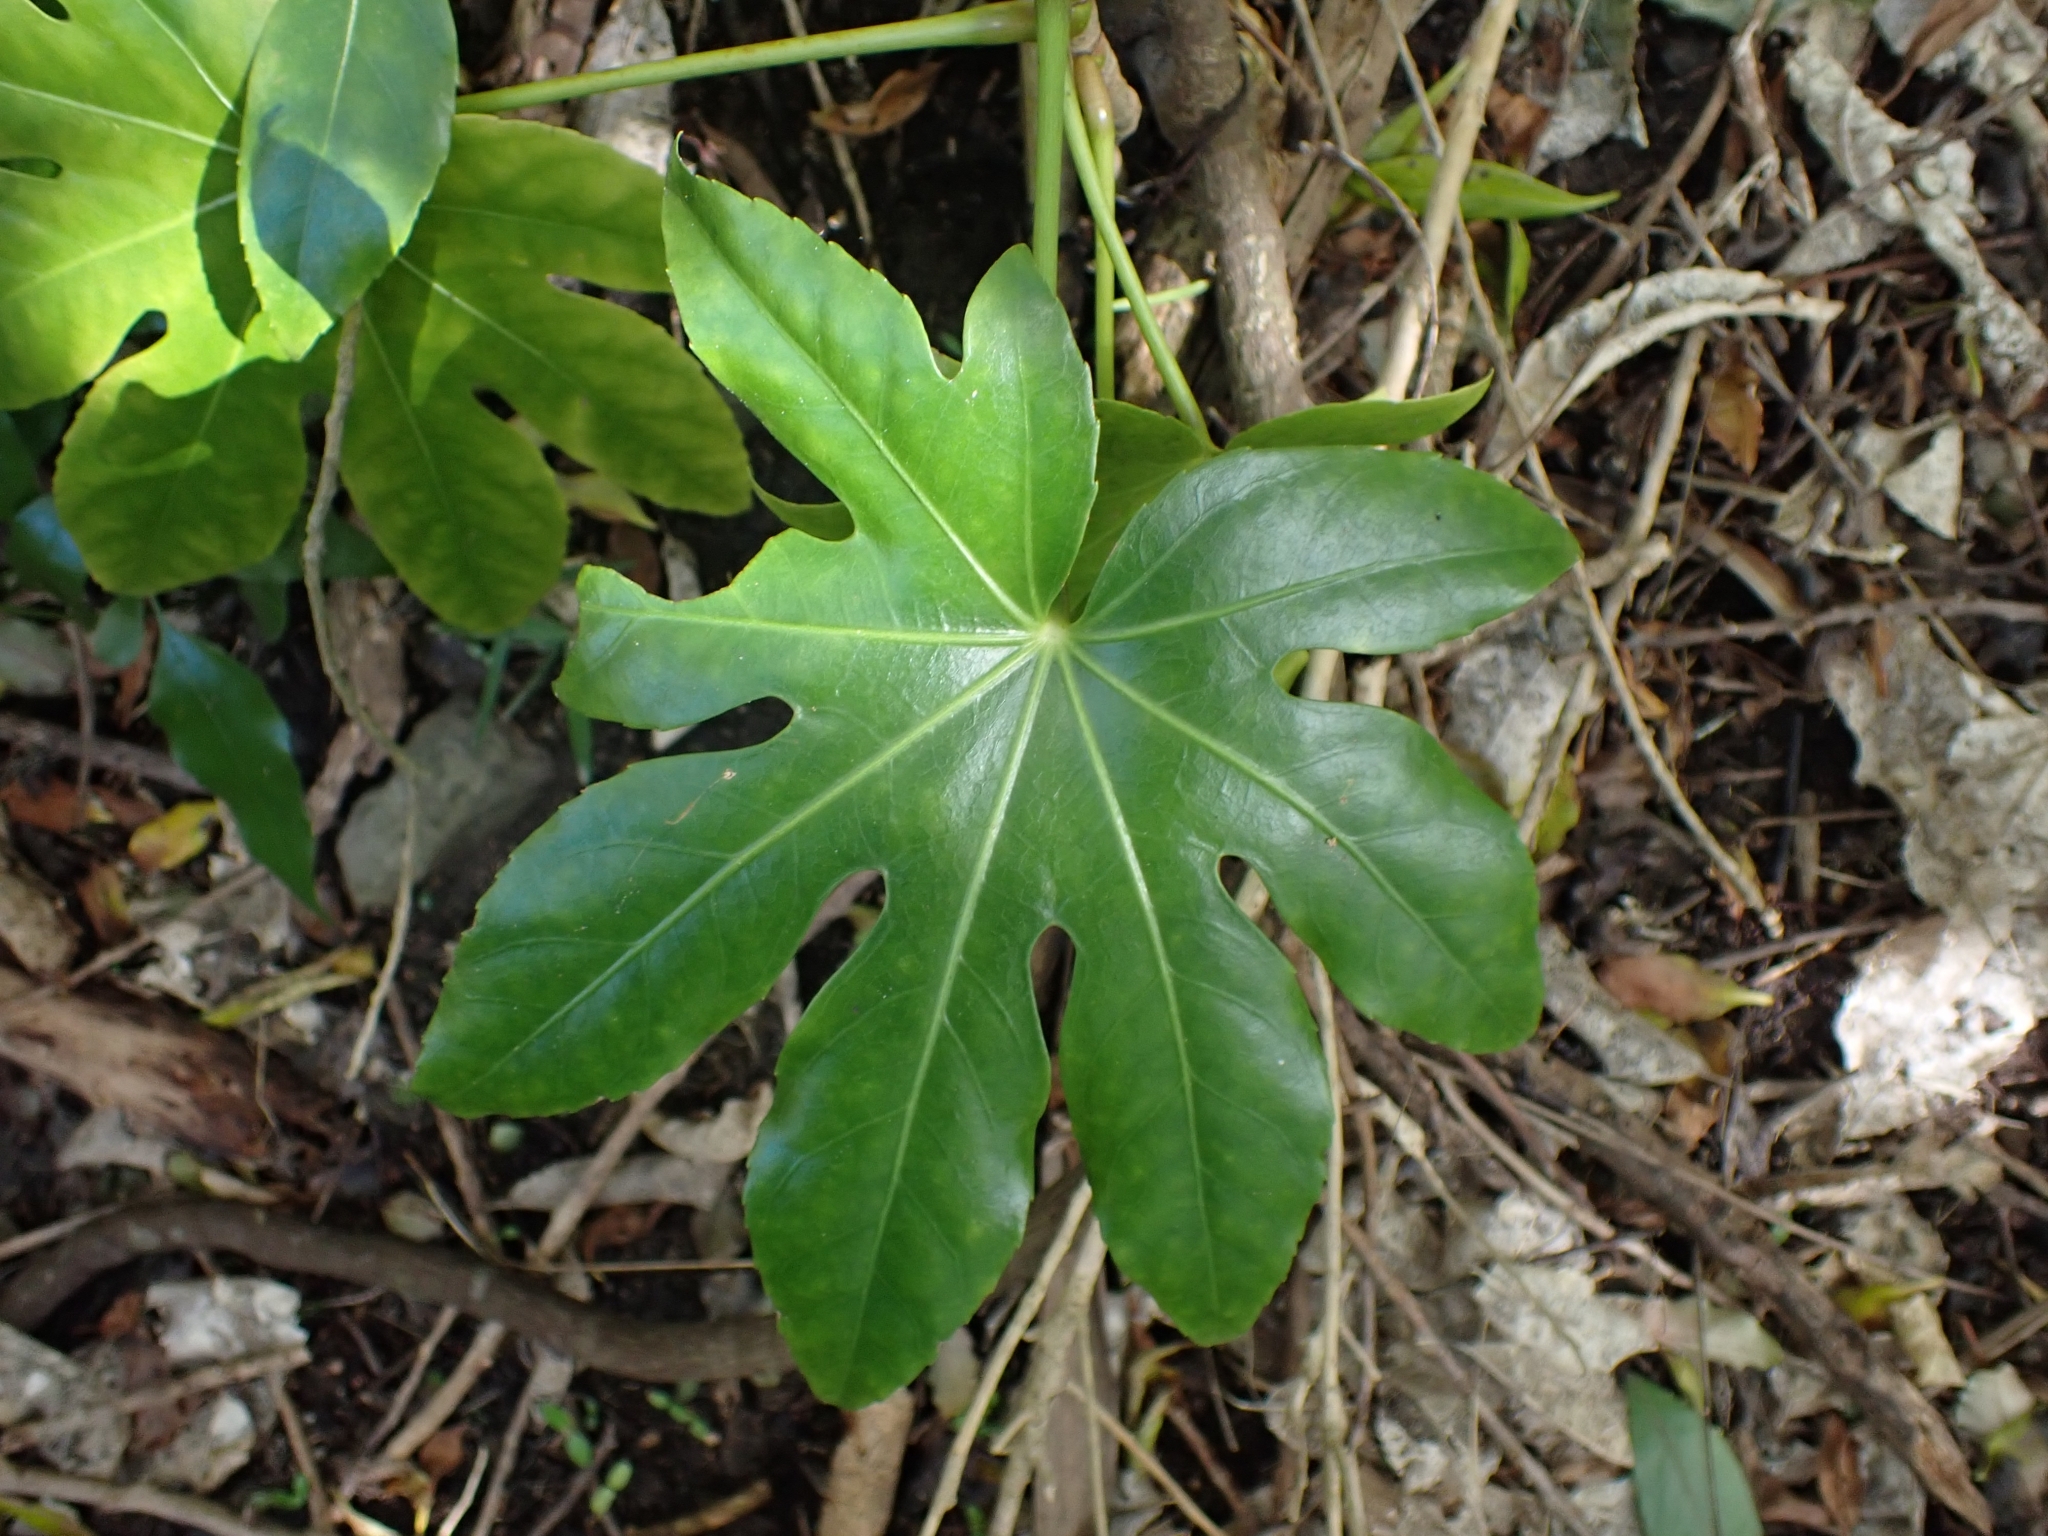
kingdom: Plantae
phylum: Tracheophyta
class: Magnoliopsida
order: Apiales
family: Araliaceae
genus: Fatsia
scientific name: Fatsia japonica
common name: Fatsia
